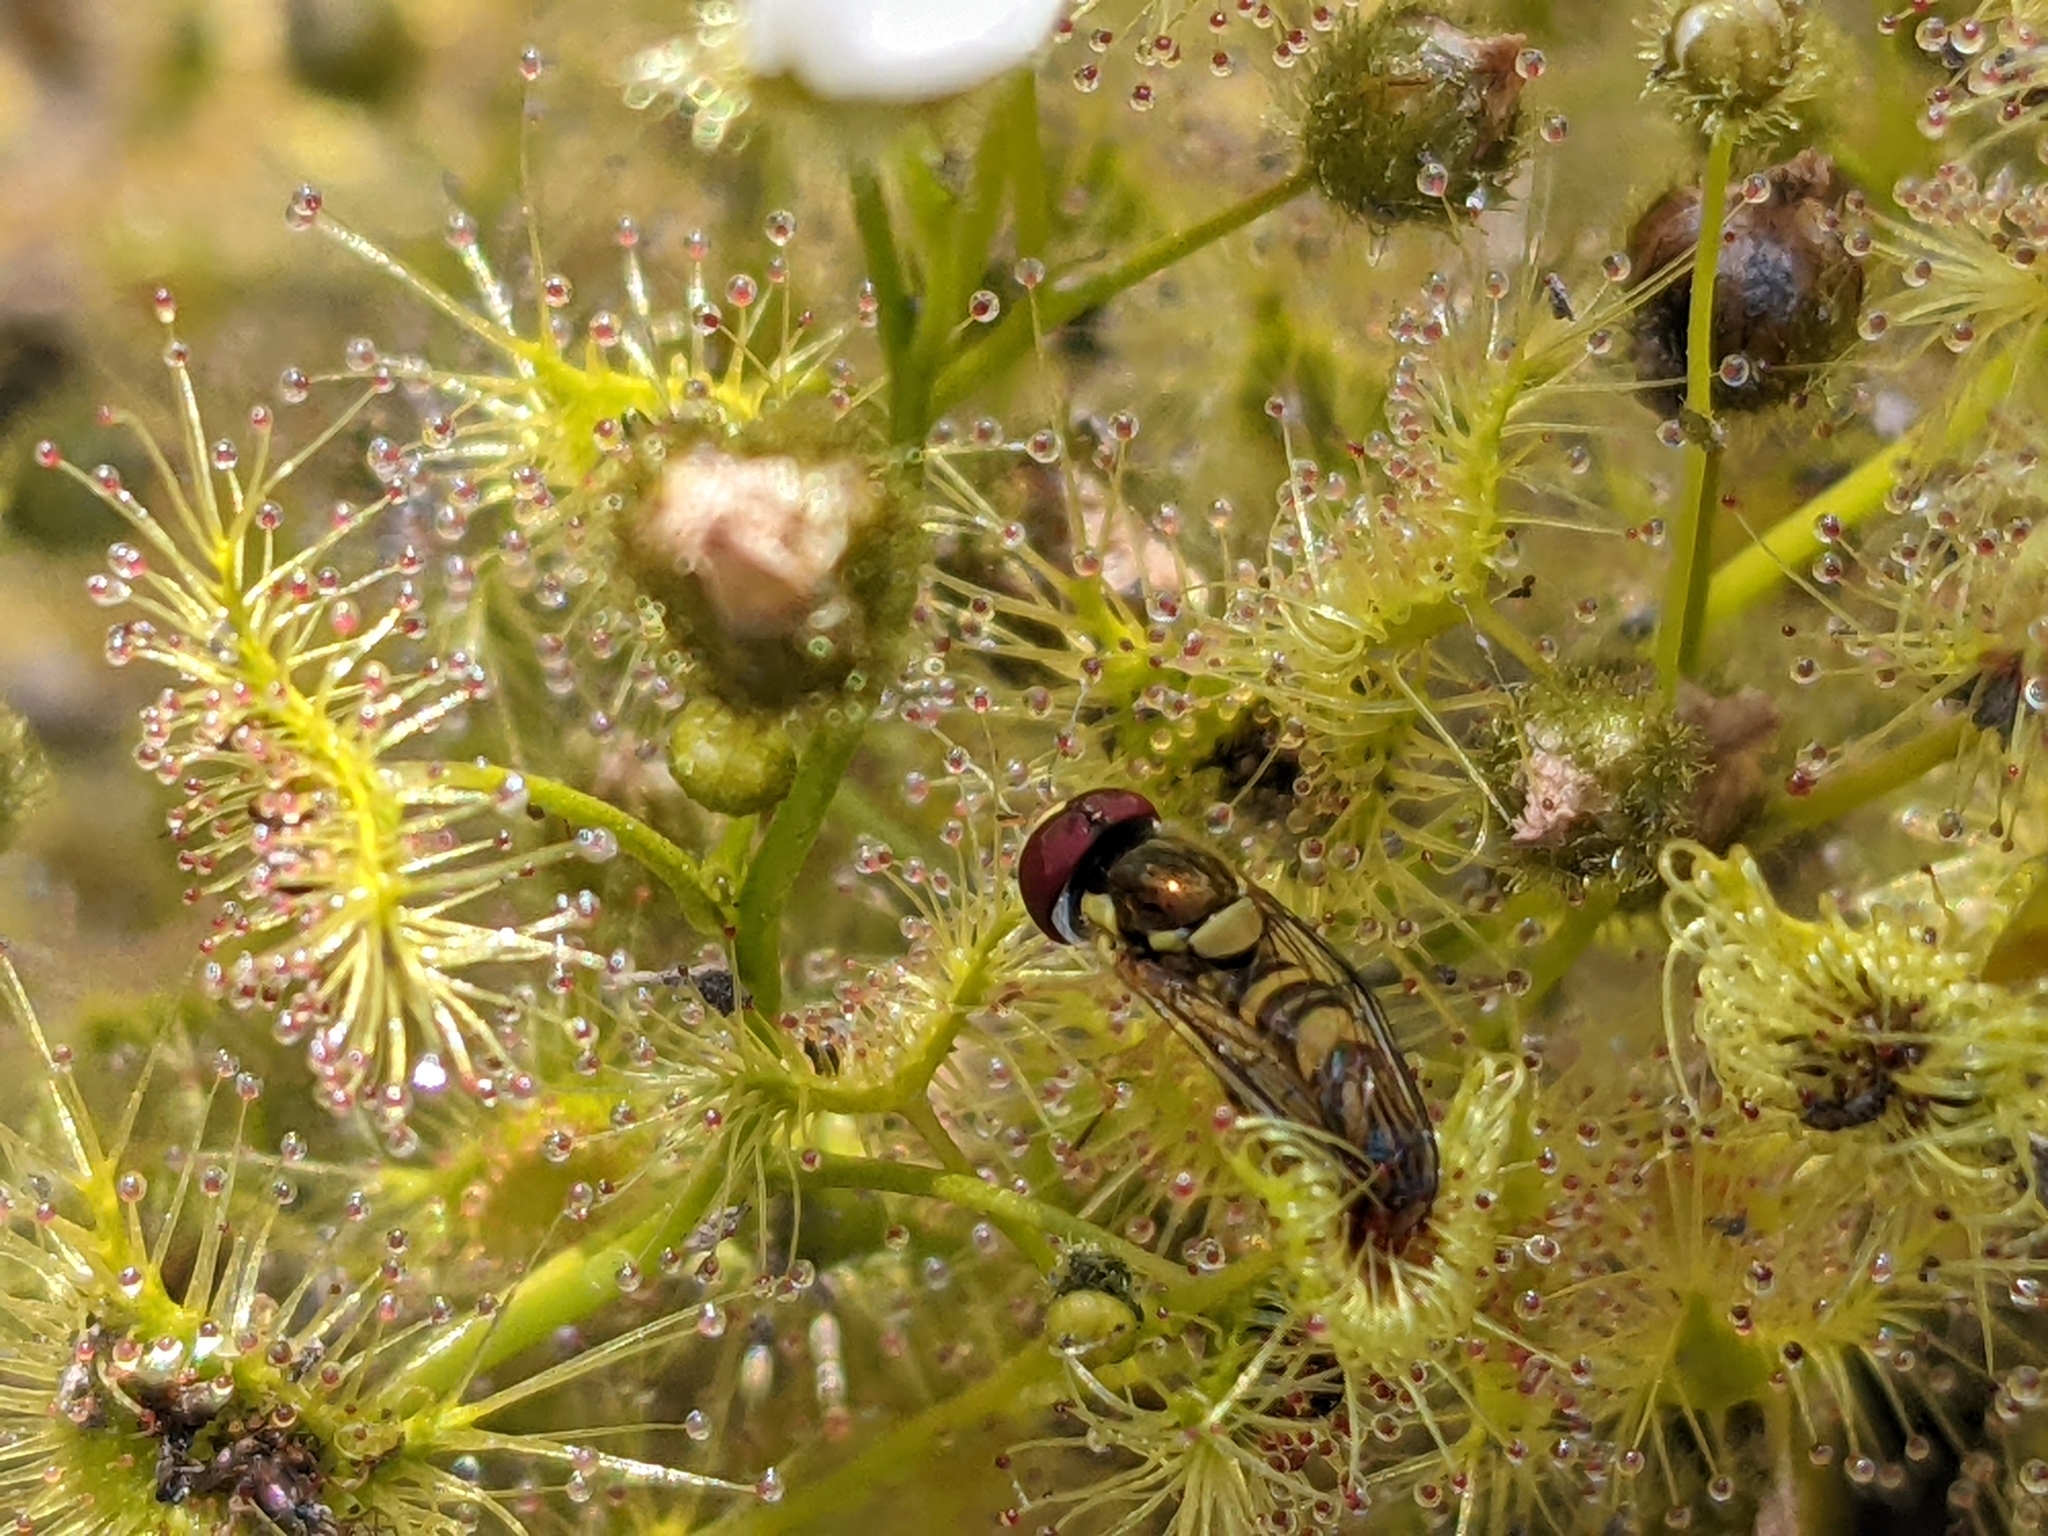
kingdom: Animalia
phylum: Arthropoda
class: Insecta
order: Diptera
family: Syrphidae
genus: Allograpta
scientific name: Allograpta obliqua
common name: Common oblique syrphid
